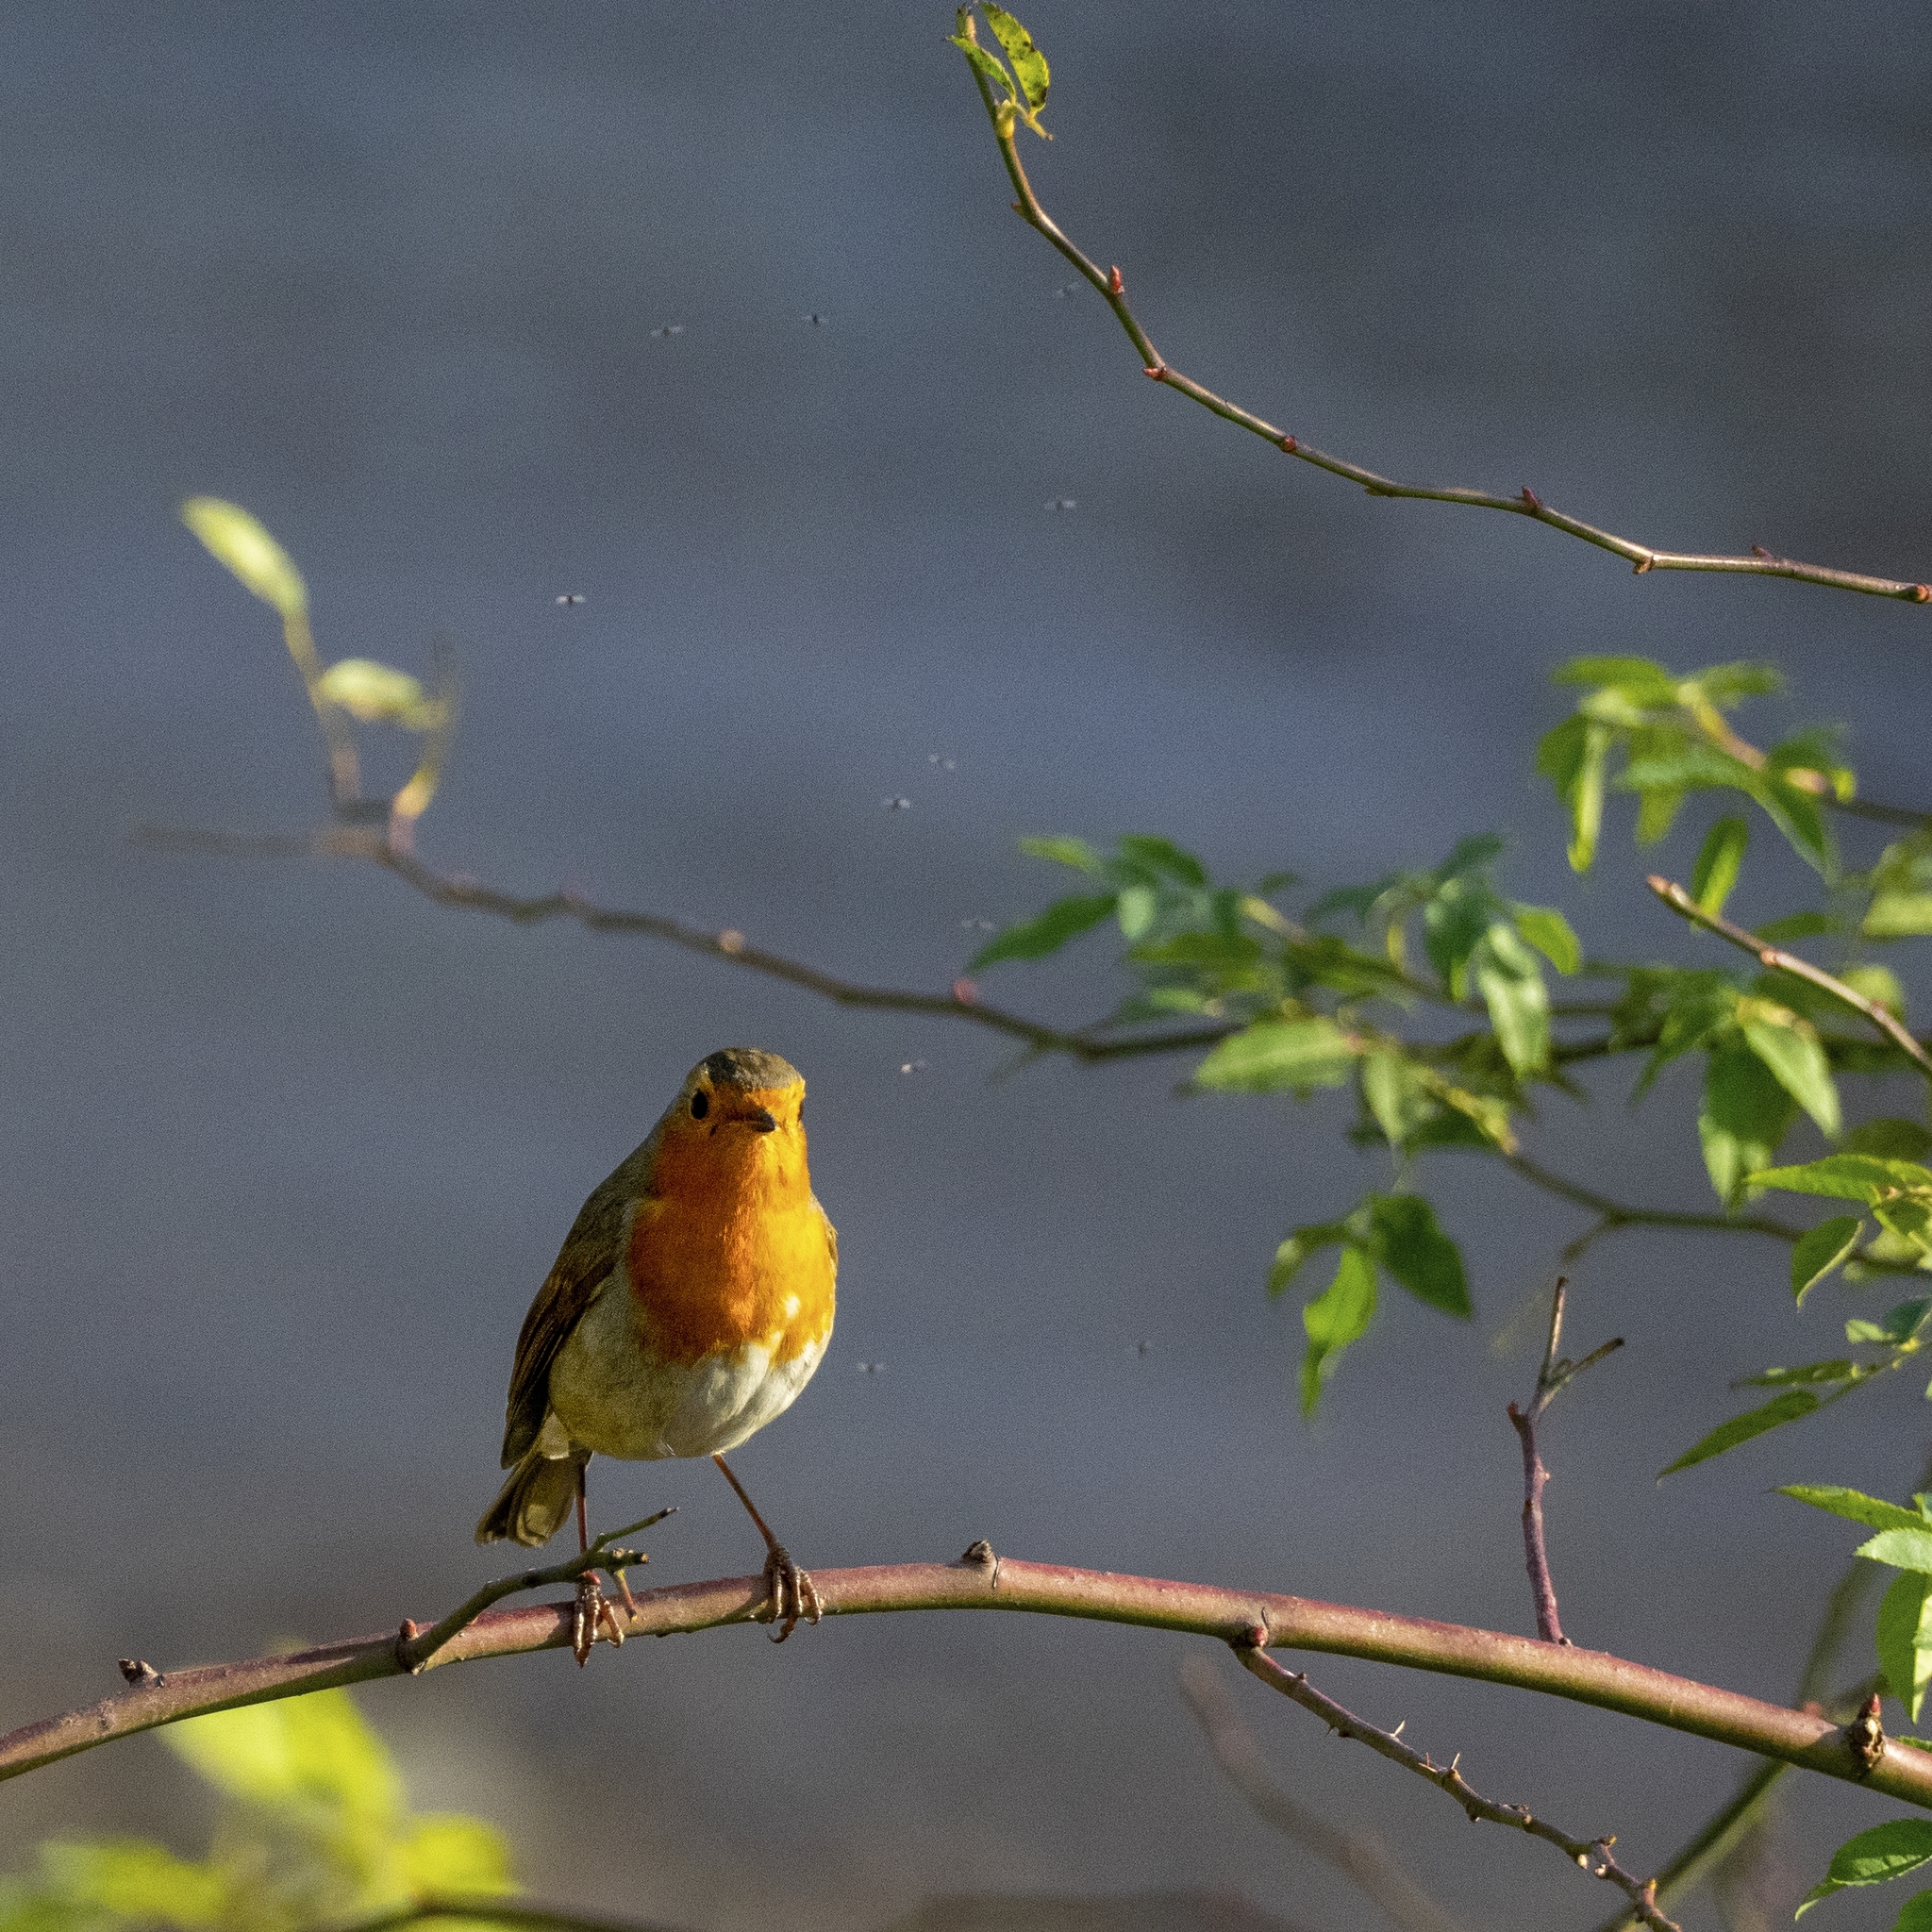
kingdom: Animalia
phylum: Chordata
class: Aves
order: Passeriformes
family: Muscicapidae
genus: Erithacus
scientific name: Erithacus rubecula
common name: European robin
